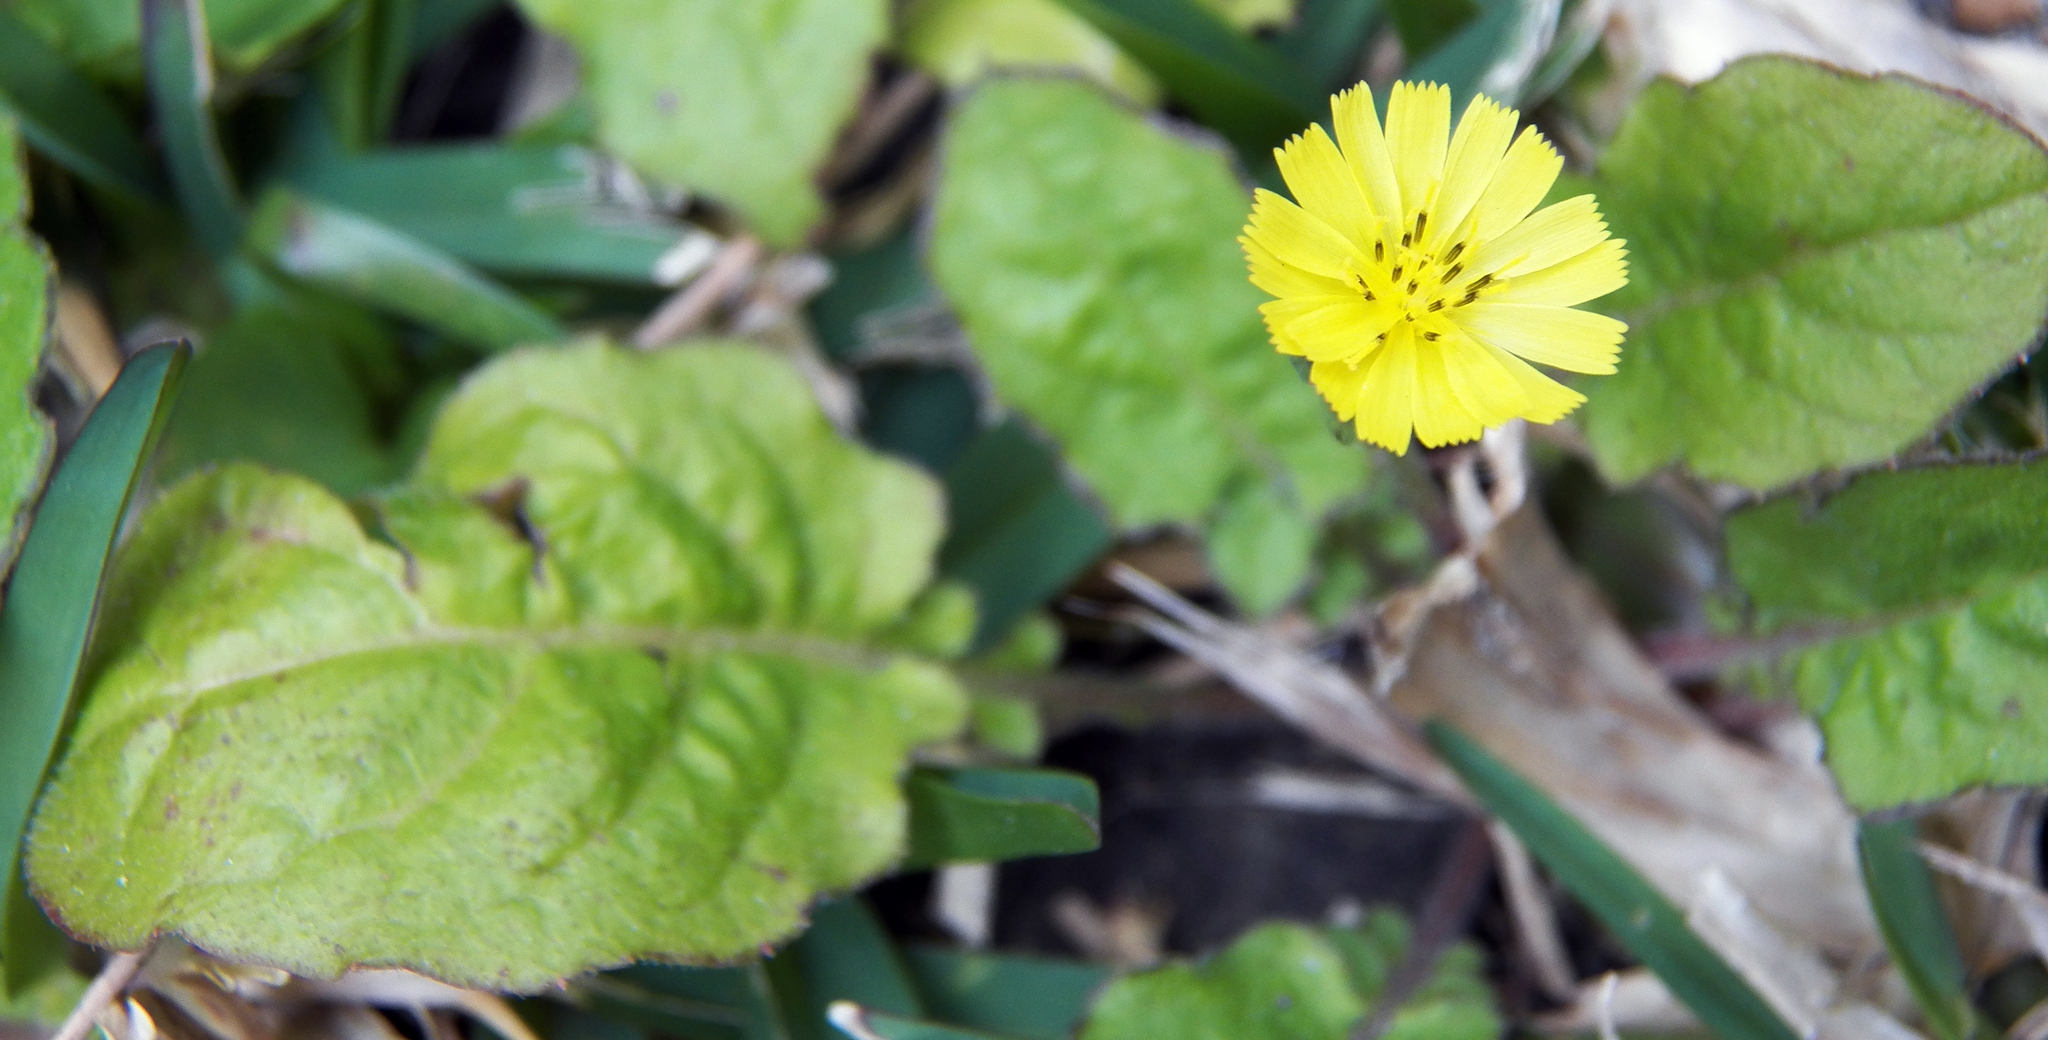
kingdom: Plantae
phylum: Tracheophyta
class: Magnoliopsida
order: Asterales
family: Asteraceae
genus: Youngia
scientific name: Youngia japonica
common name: Oriental false hawksbeard
